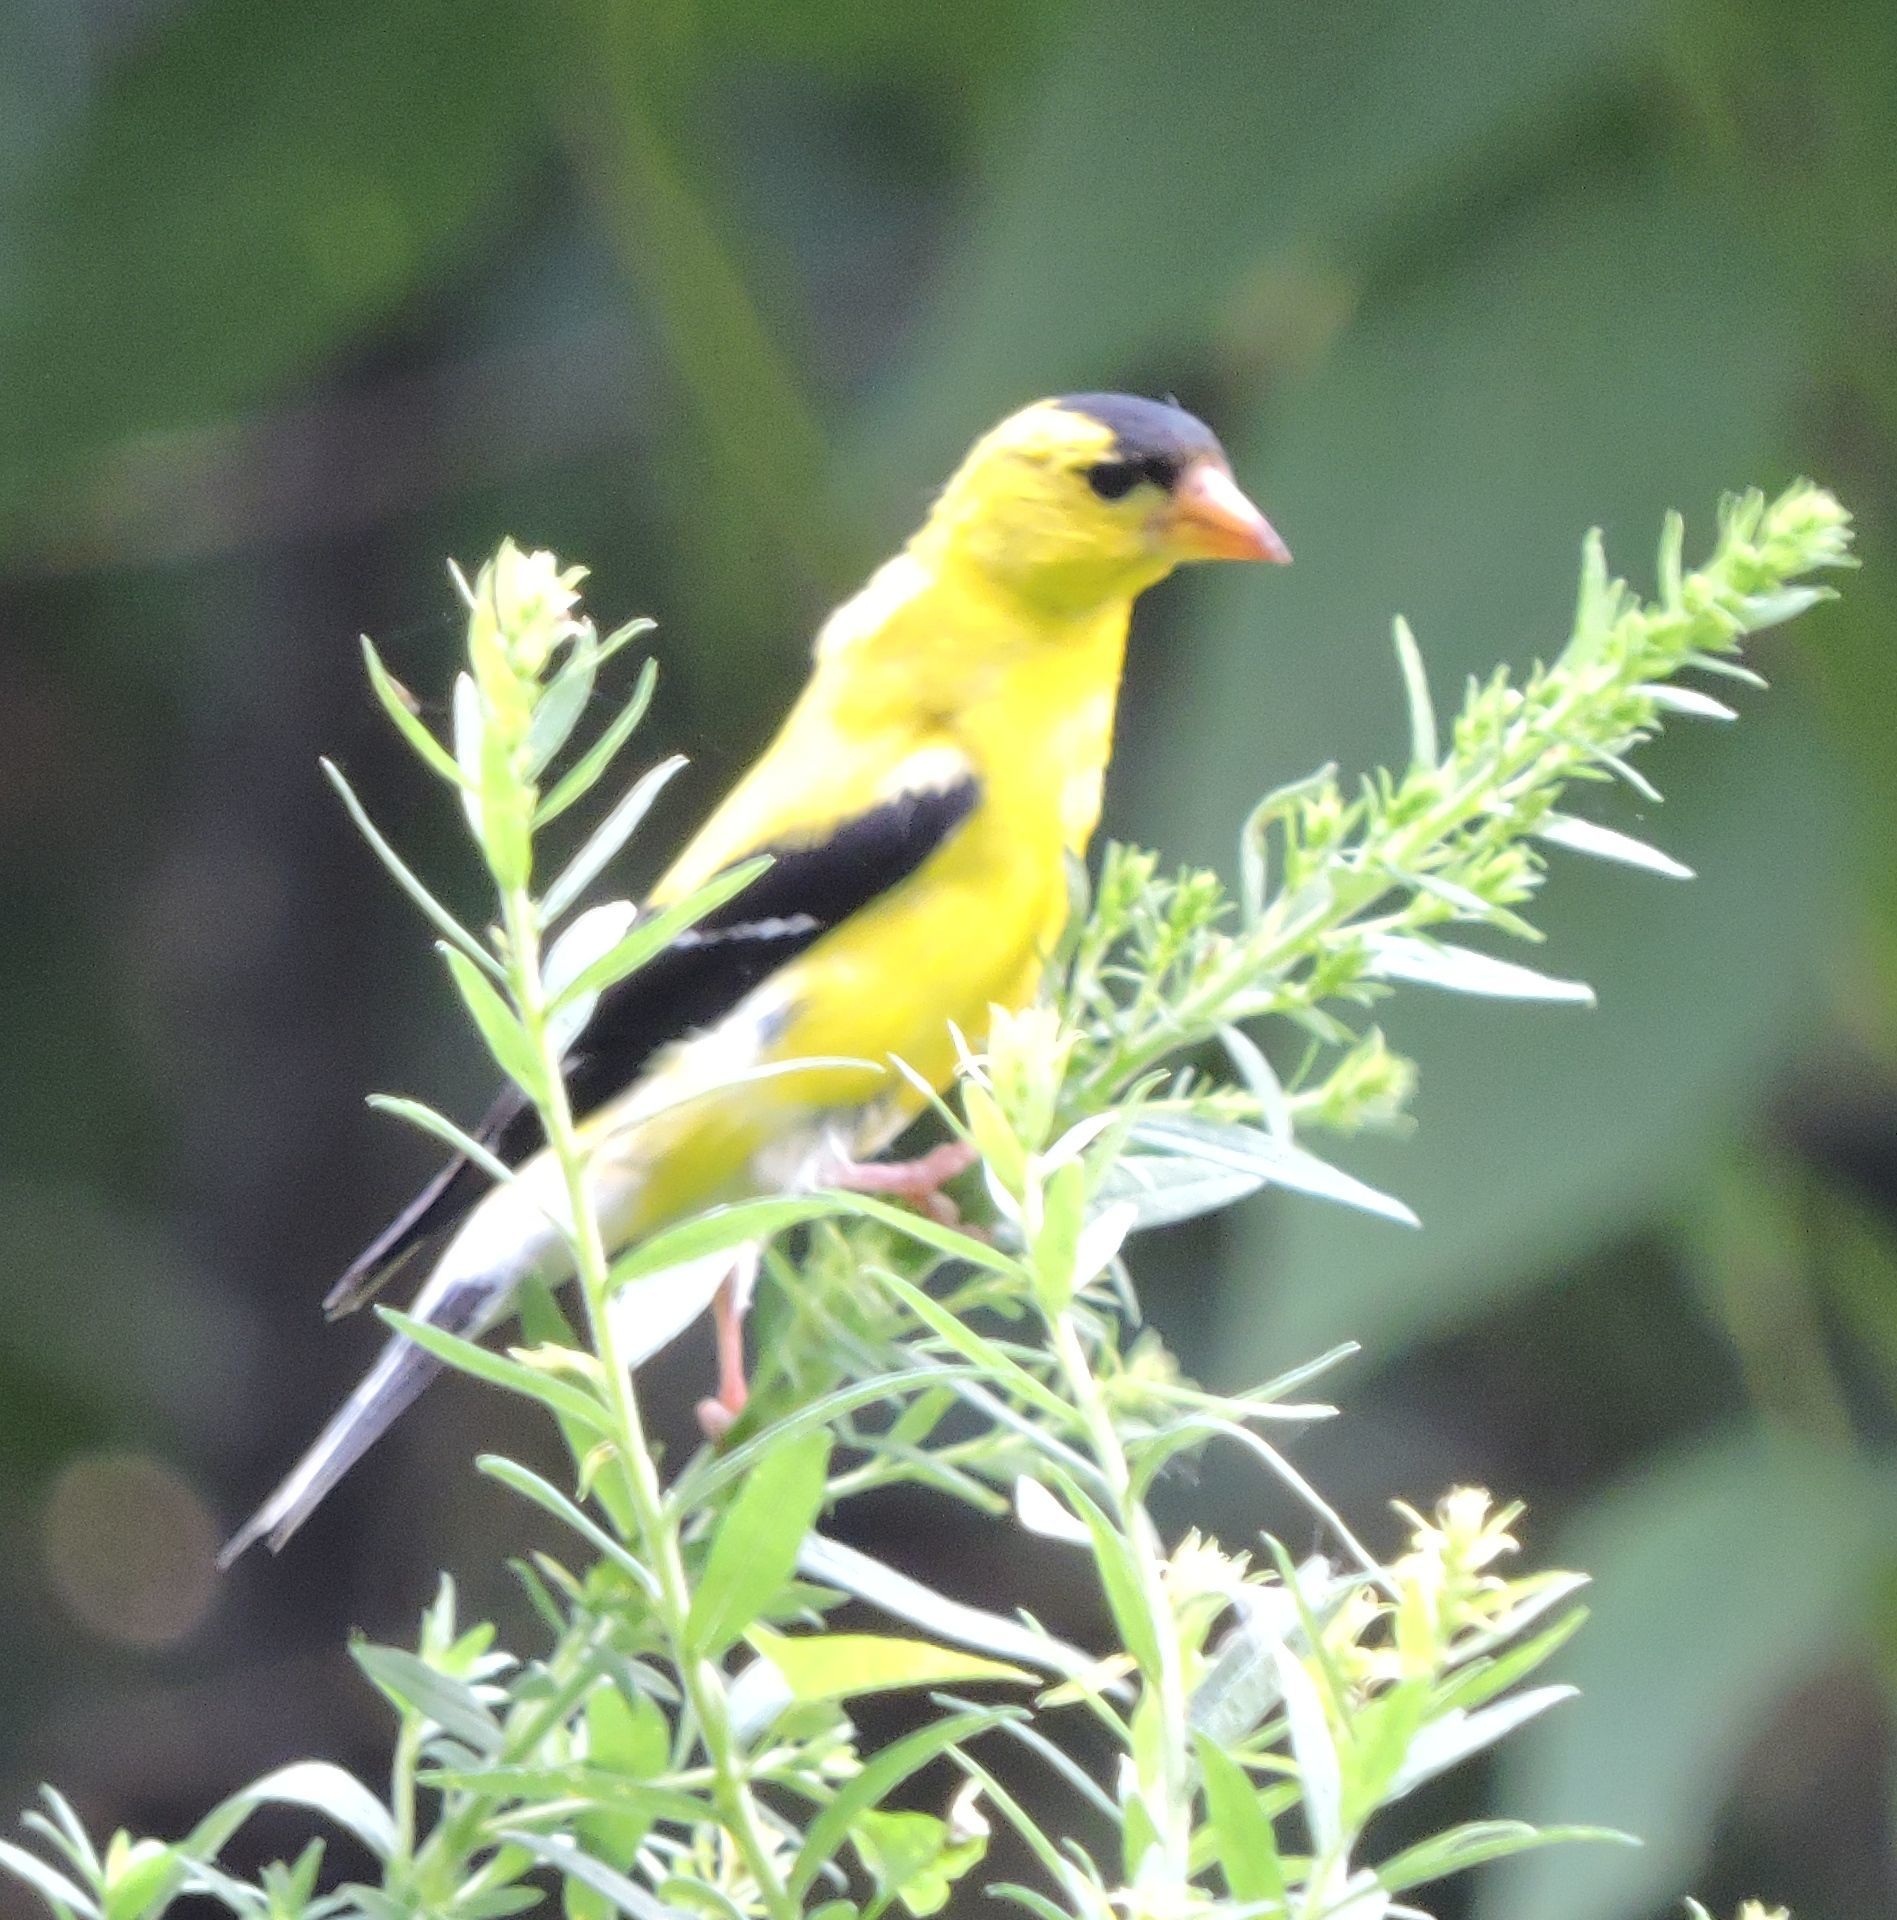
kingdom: Animalia
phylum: Chordata
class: Aves
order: Passeriformes
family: Fringillidae
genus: Spinus
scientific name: Spinus tristis
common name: American goldfinch
